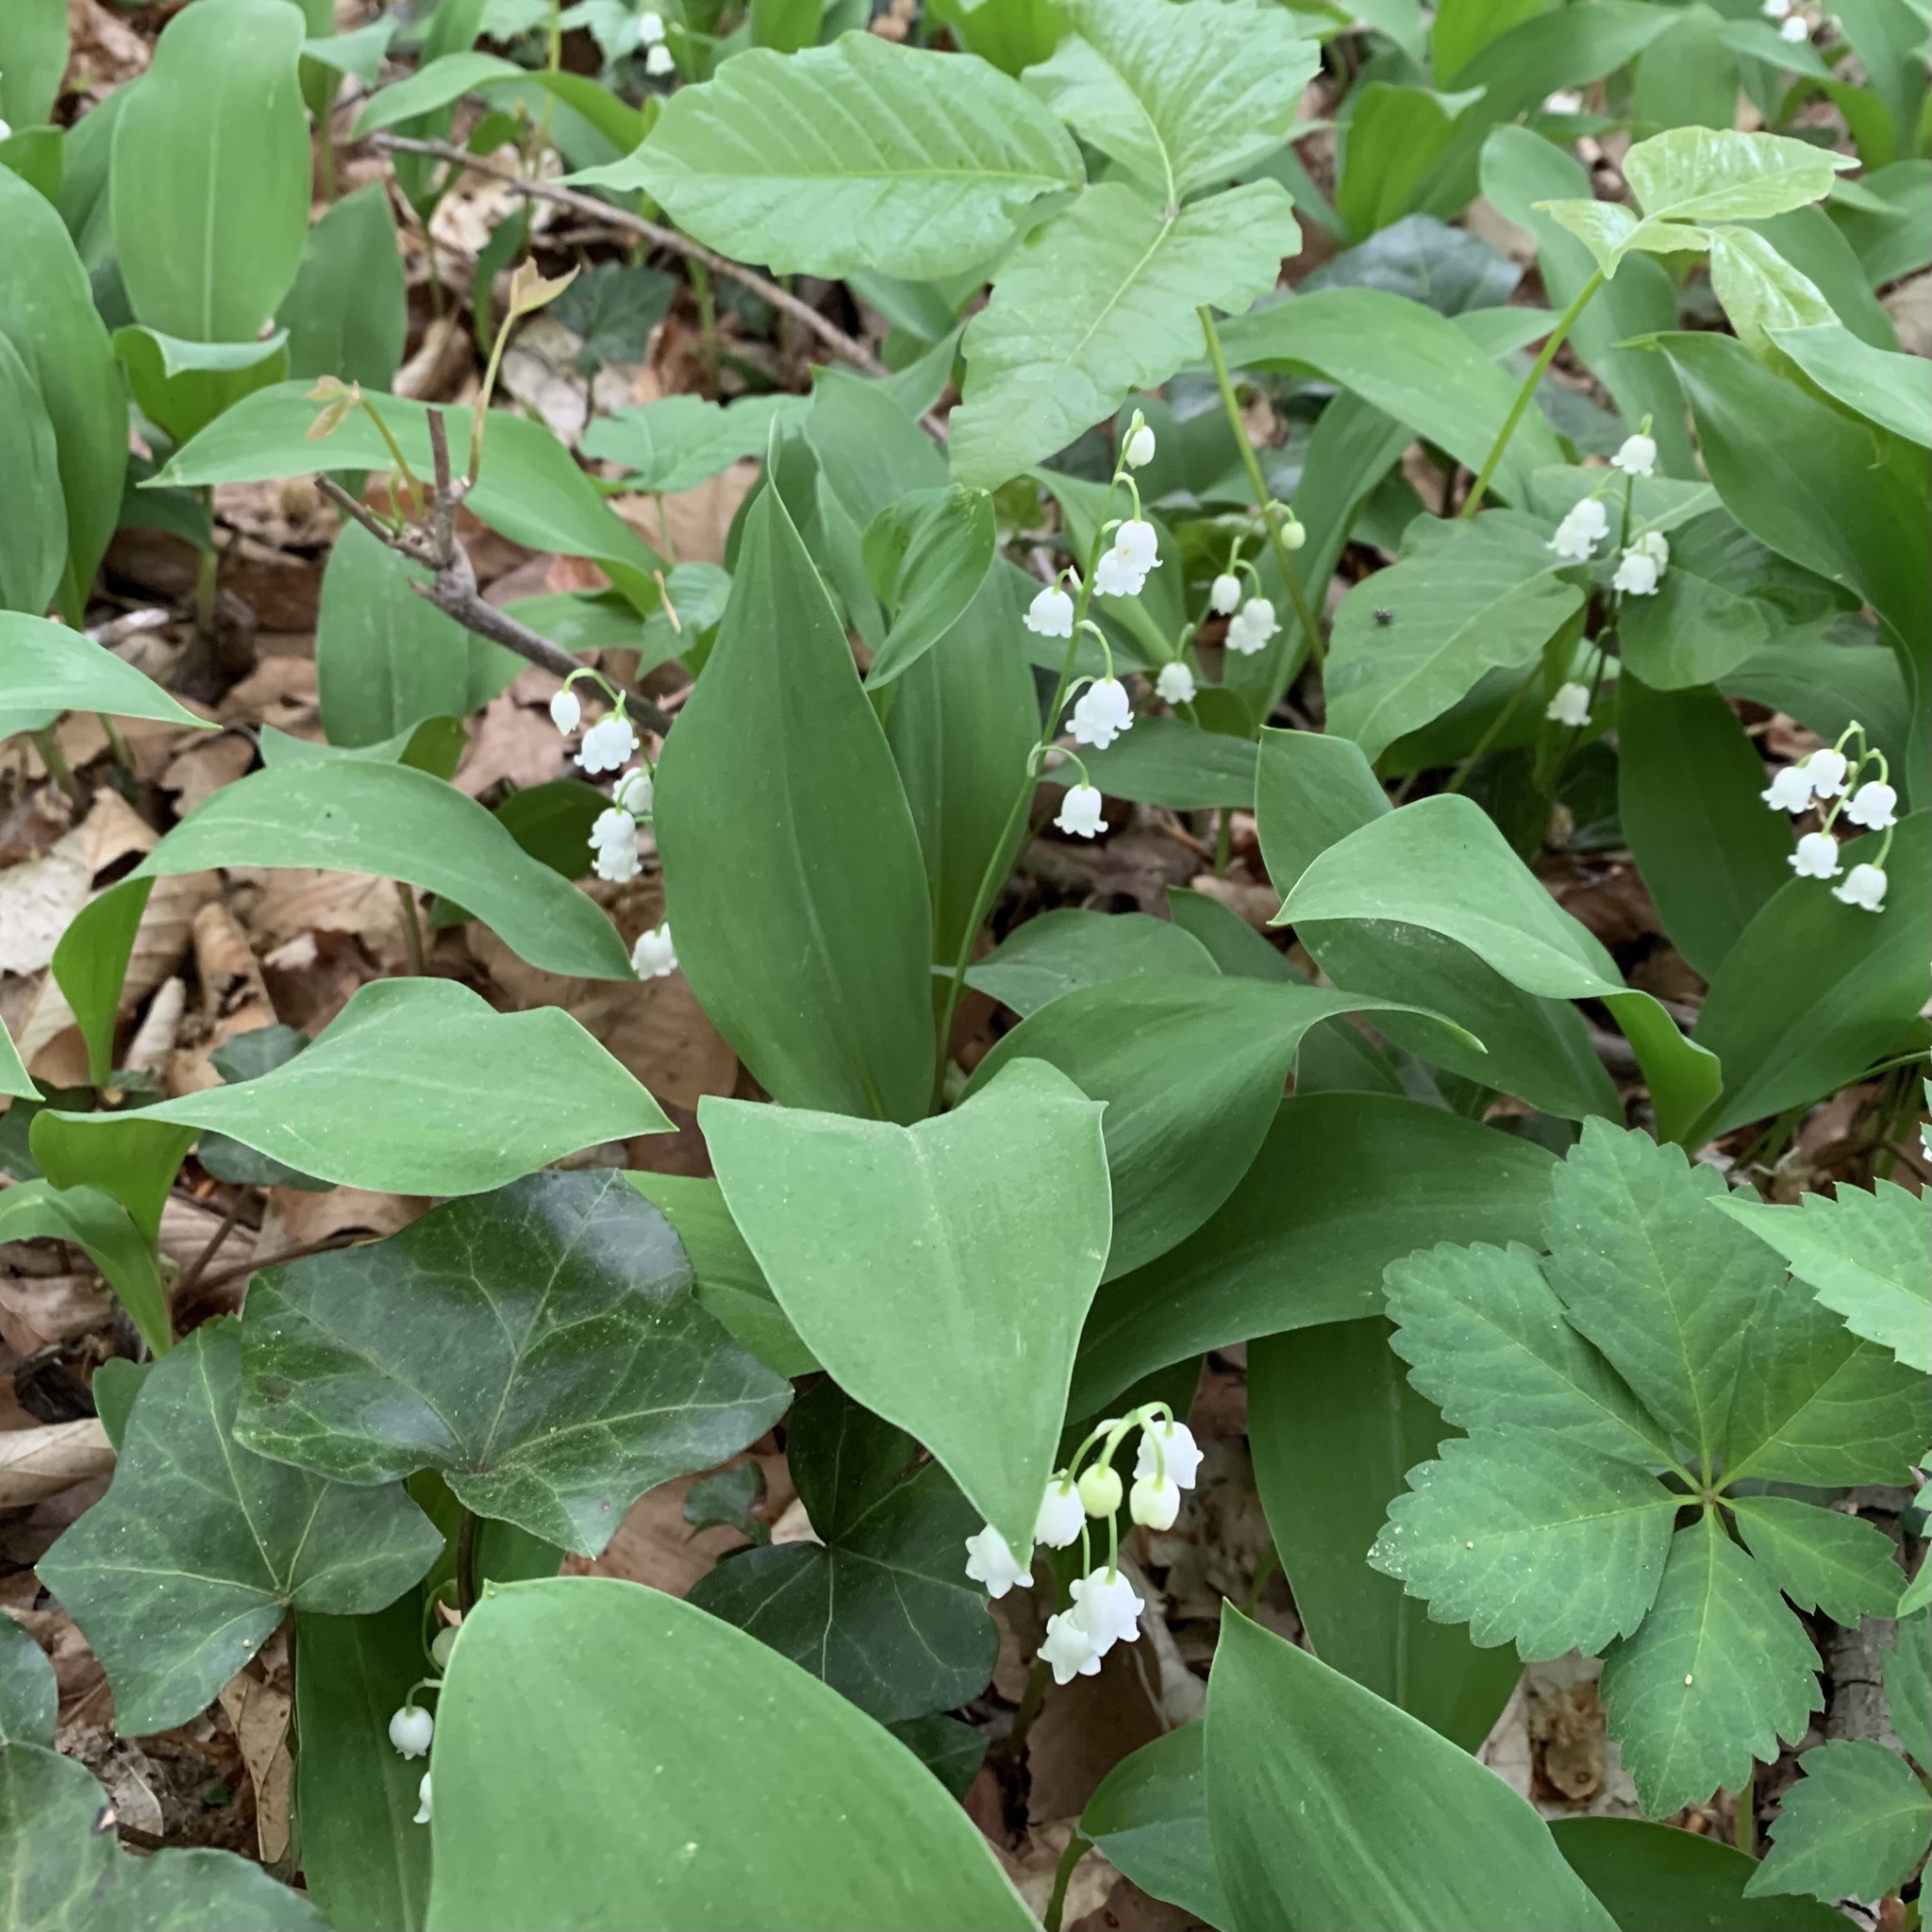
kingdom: Plantae
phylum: Tracheophyta
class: Liliopsida
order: Asparagales
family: Asparagaceae
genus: Convallaria
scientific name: Convallaria majalis
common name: Lily-of-the-valley
